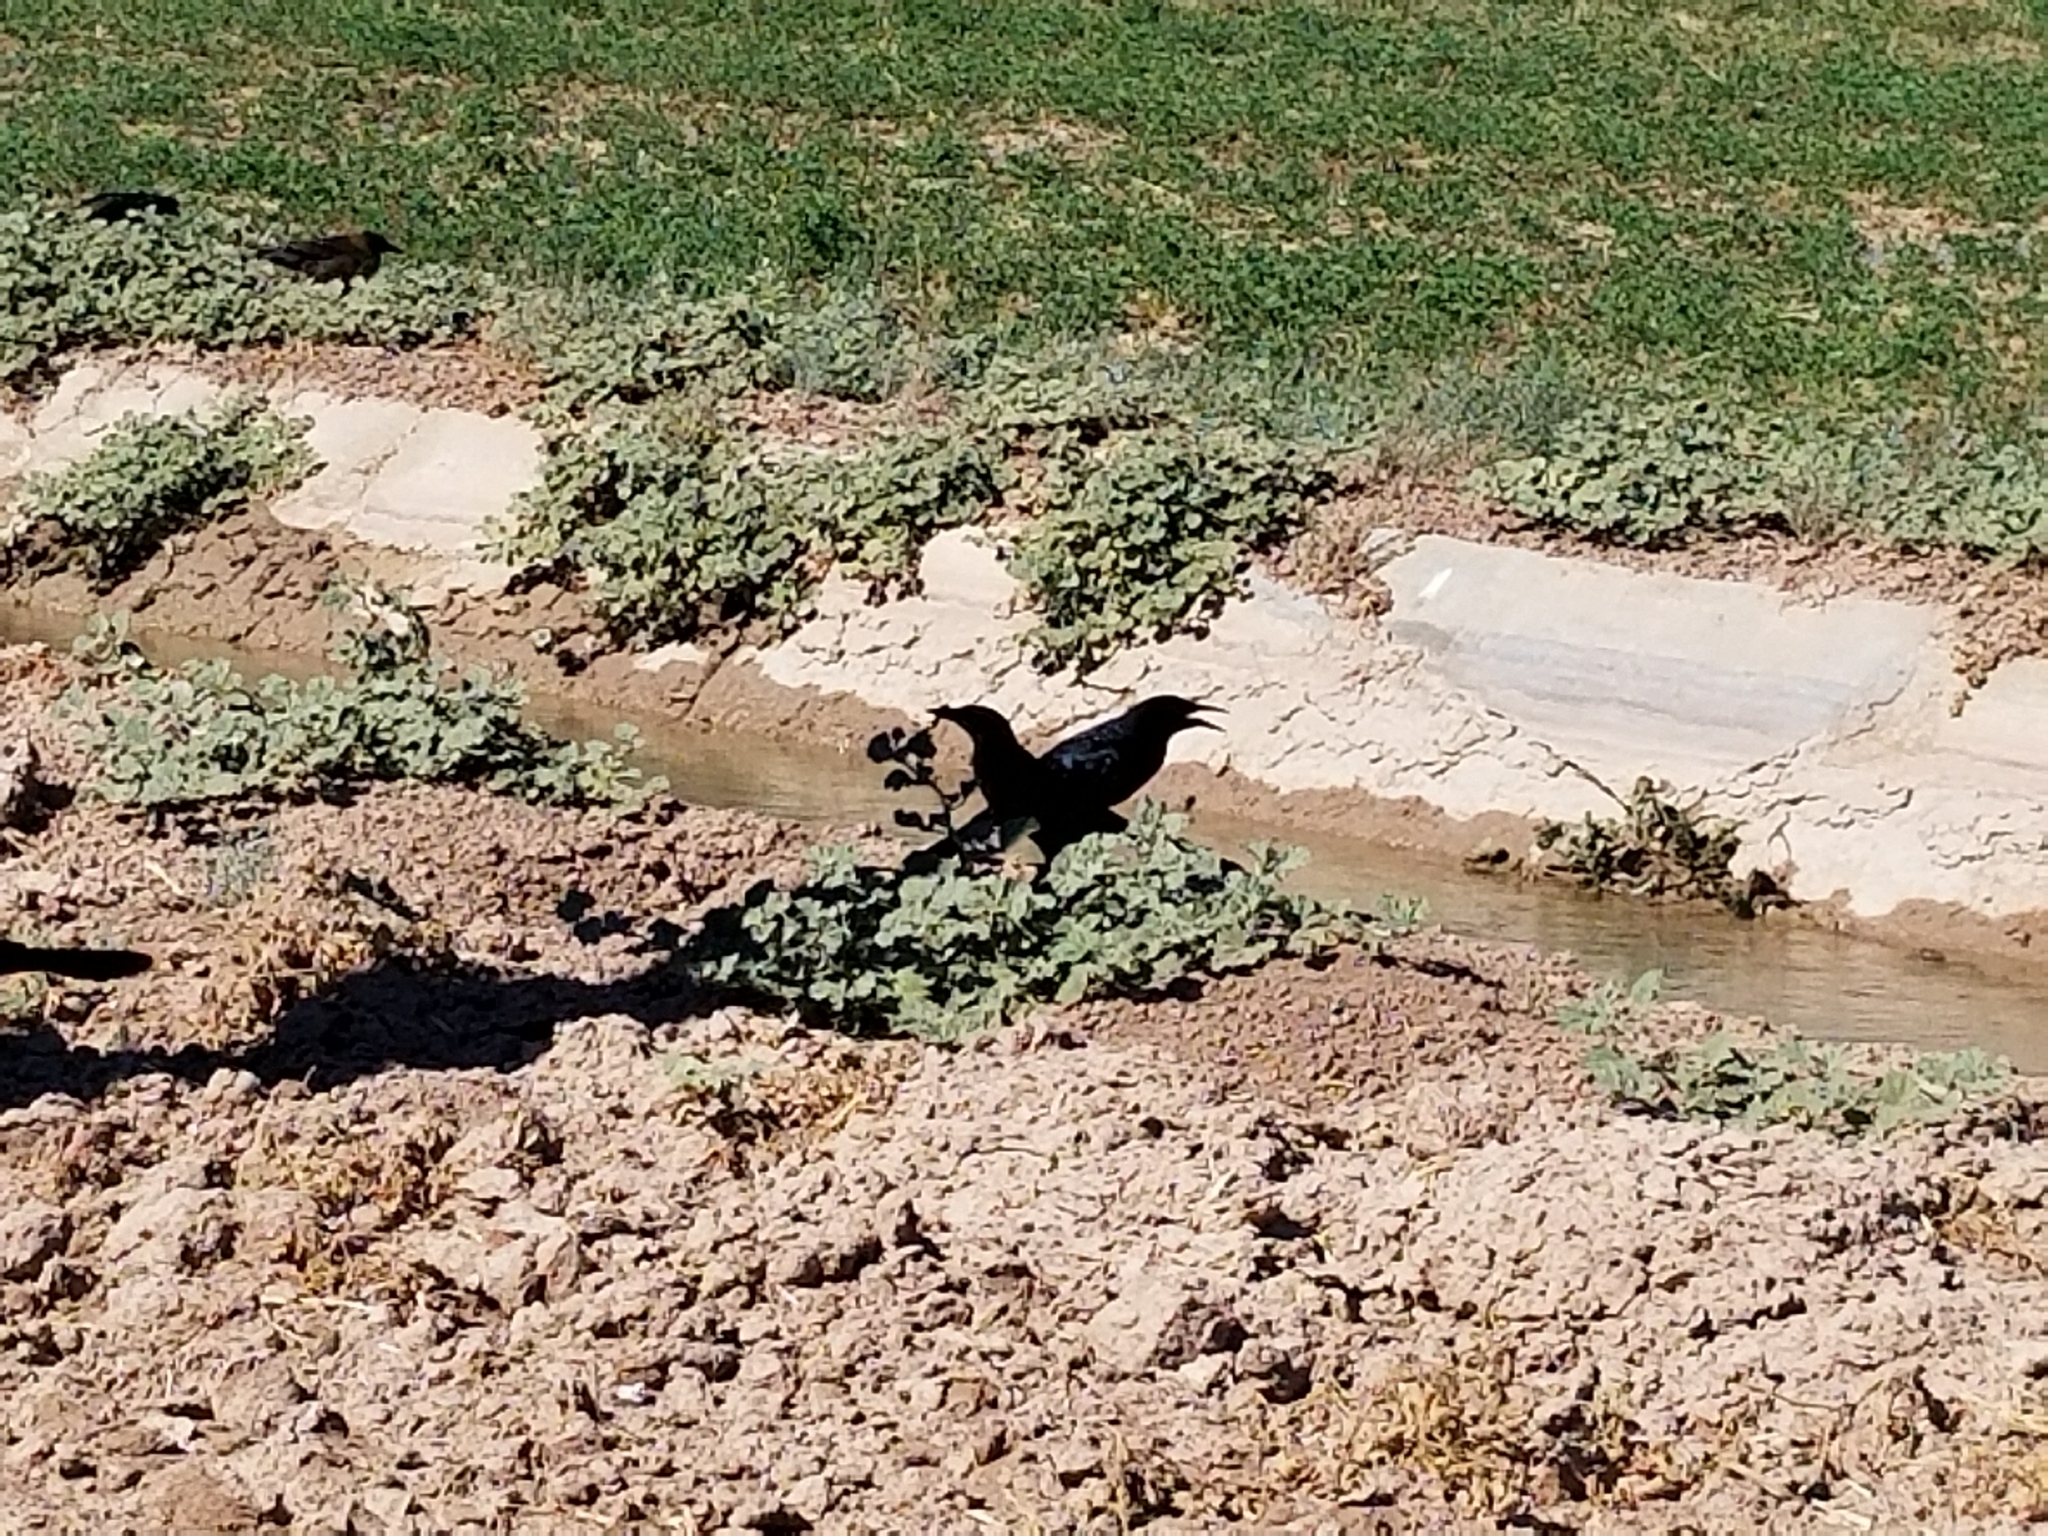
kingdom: Animalia
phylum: Chordata
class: Aves
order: Passeriformes
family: Icteridae
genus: Quiscalus
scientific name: Quiscalus mexicanus
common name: Great-tailed grackle
